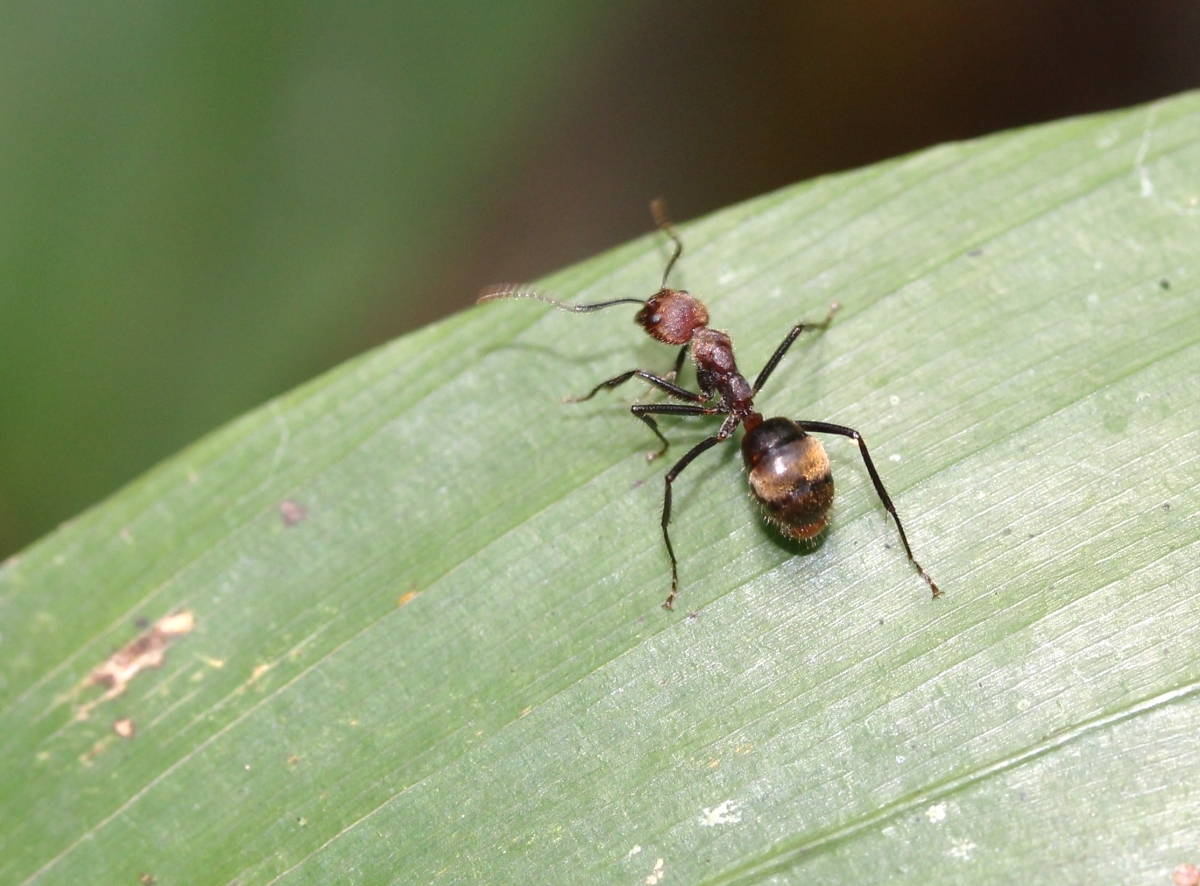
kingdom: Animalia
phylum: Arthropoda
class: Insecta
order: Hymenoptera
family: Formicidae
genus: Dolichoderus
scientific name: Dolichoderus quadridenticulatus
